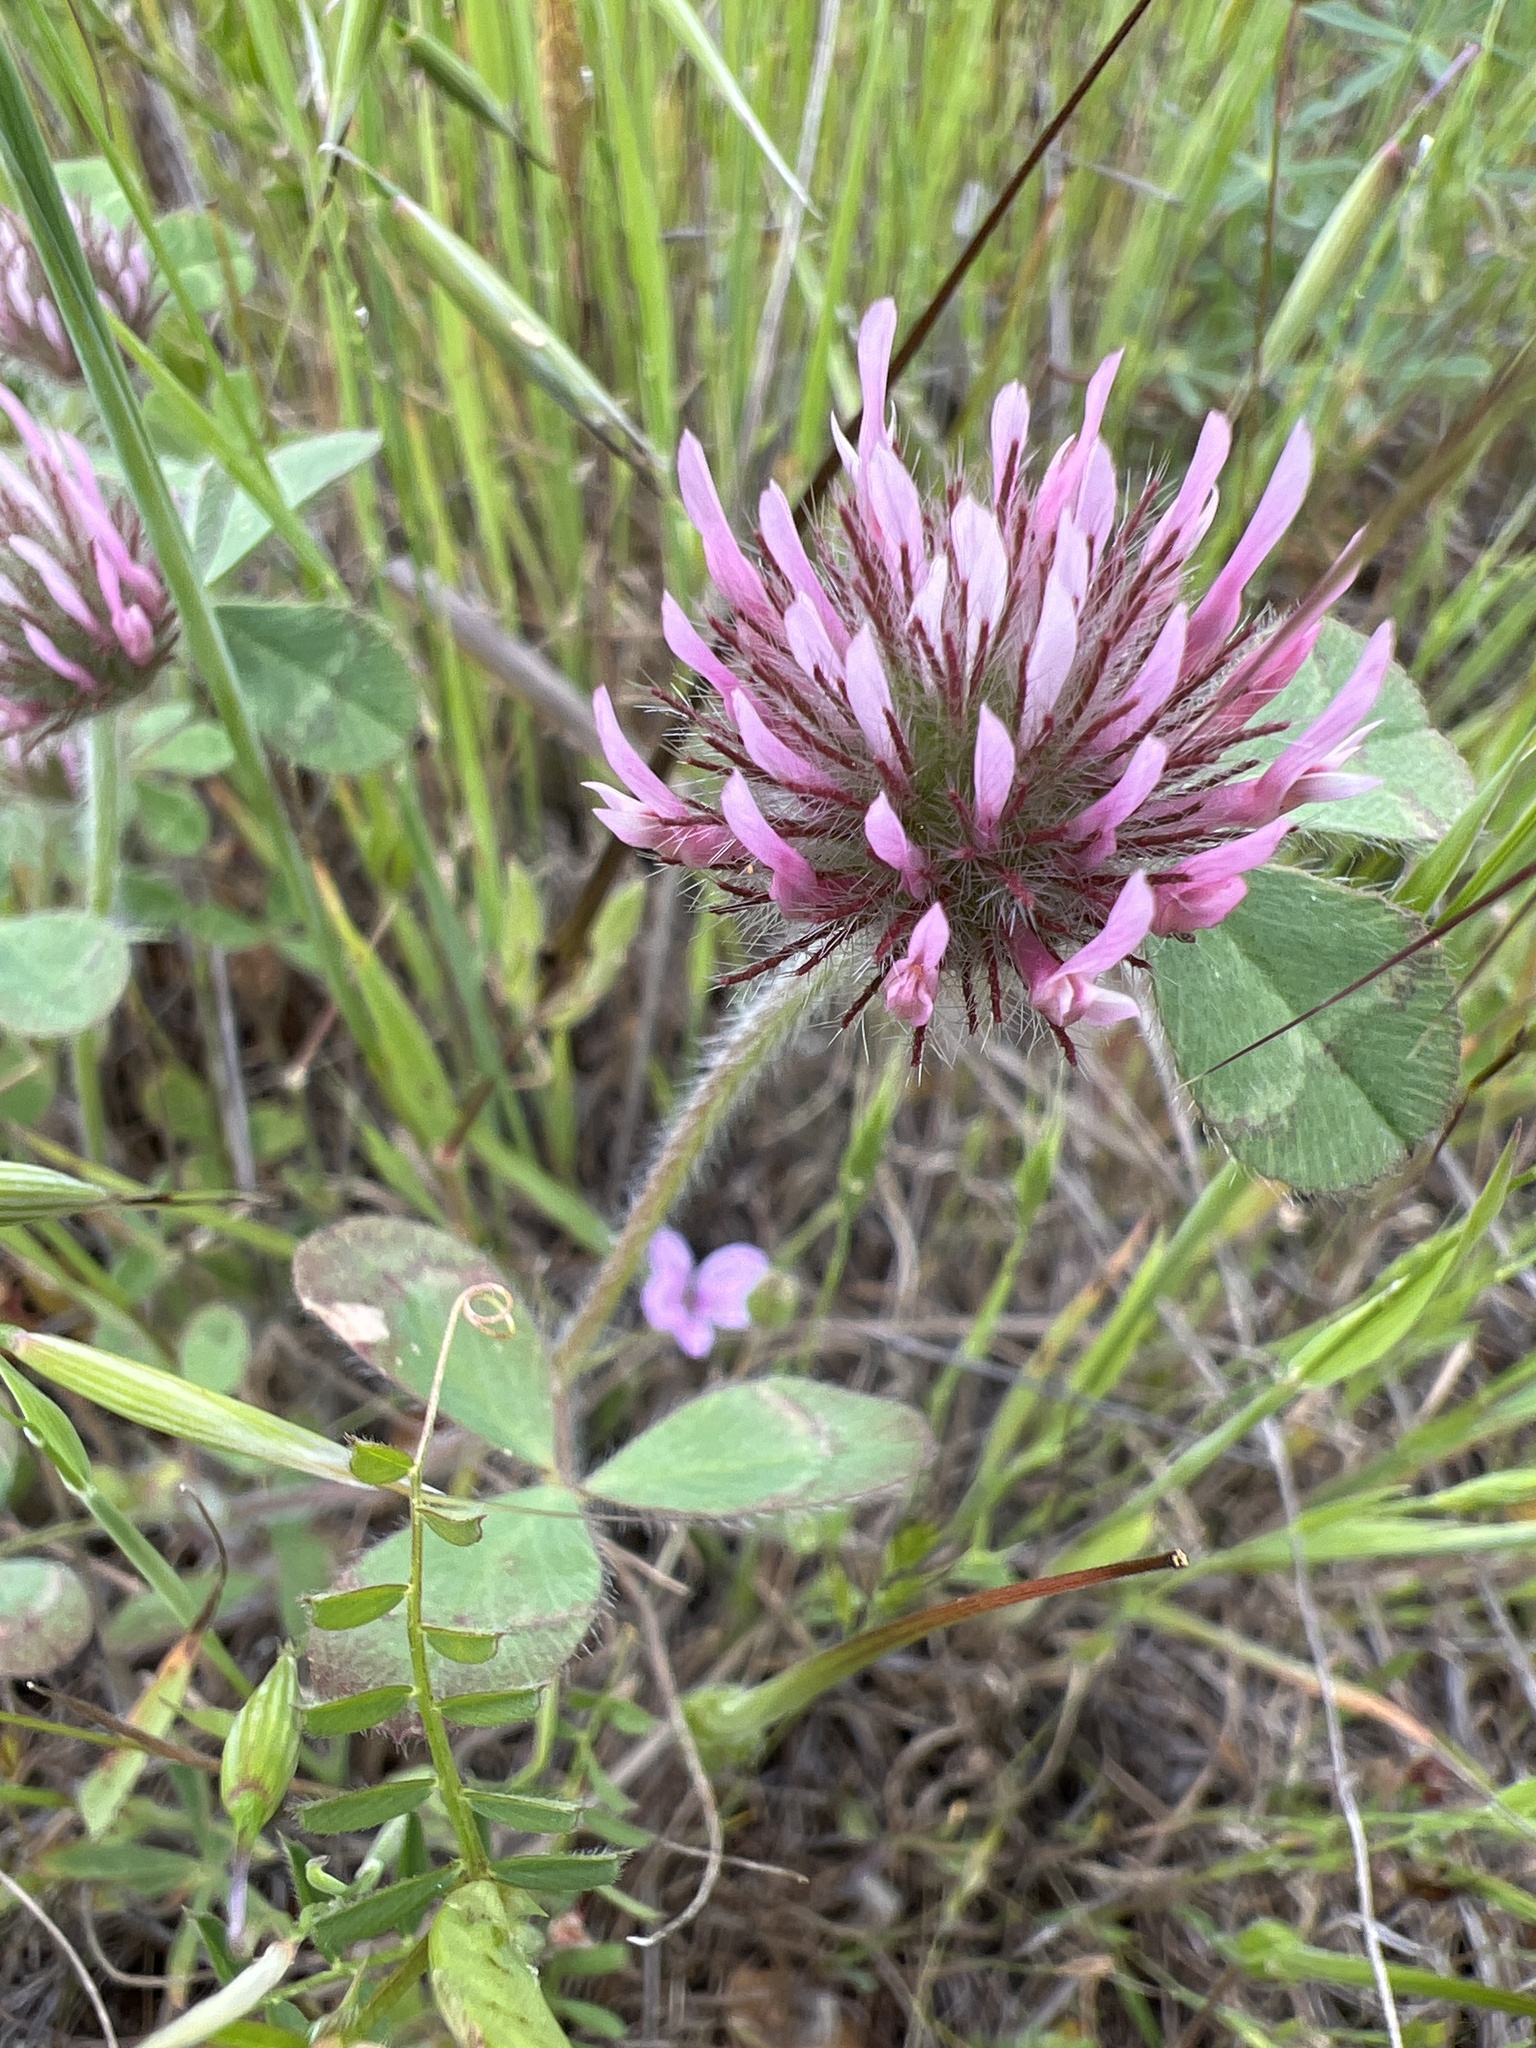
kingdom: Plantae
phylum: Tracheophyta
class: Magnoliopsida
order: Fabales
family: Fabaceae
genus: Trifolium
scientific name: Trifolium hirtum
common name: Rose clover
